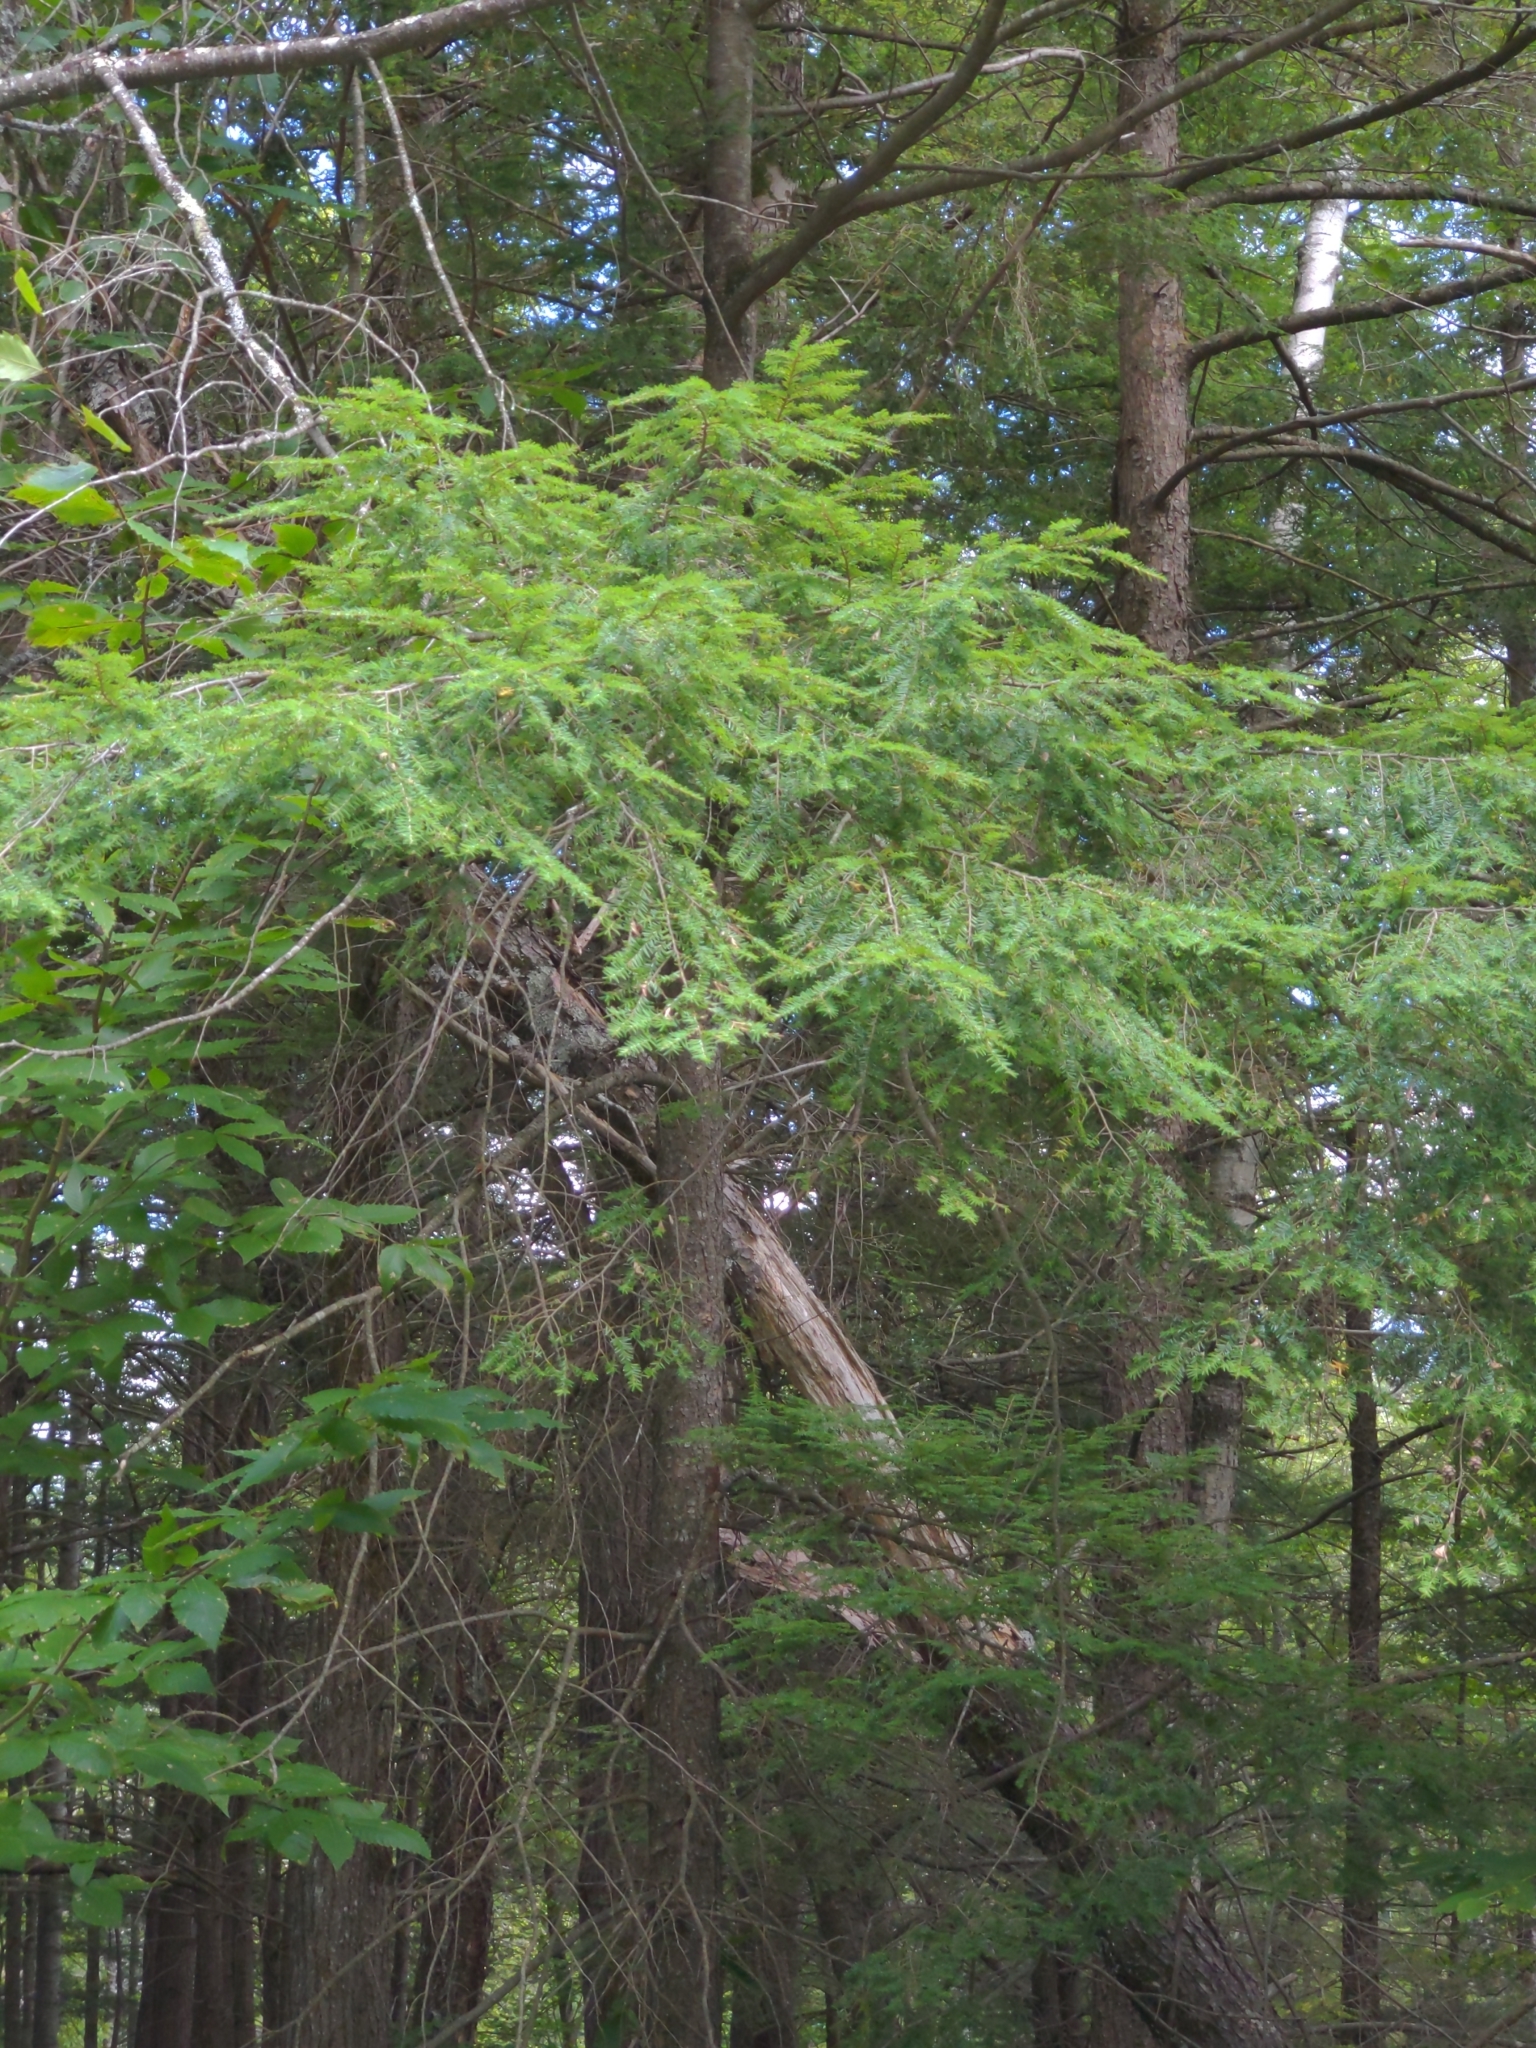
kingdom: Plantae
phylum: Tracheophyta
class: Pinopsida
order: Pinales
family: Pinaceae
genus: Tsuga
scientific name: Tsuga canadensis
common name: Eastern hemlock
